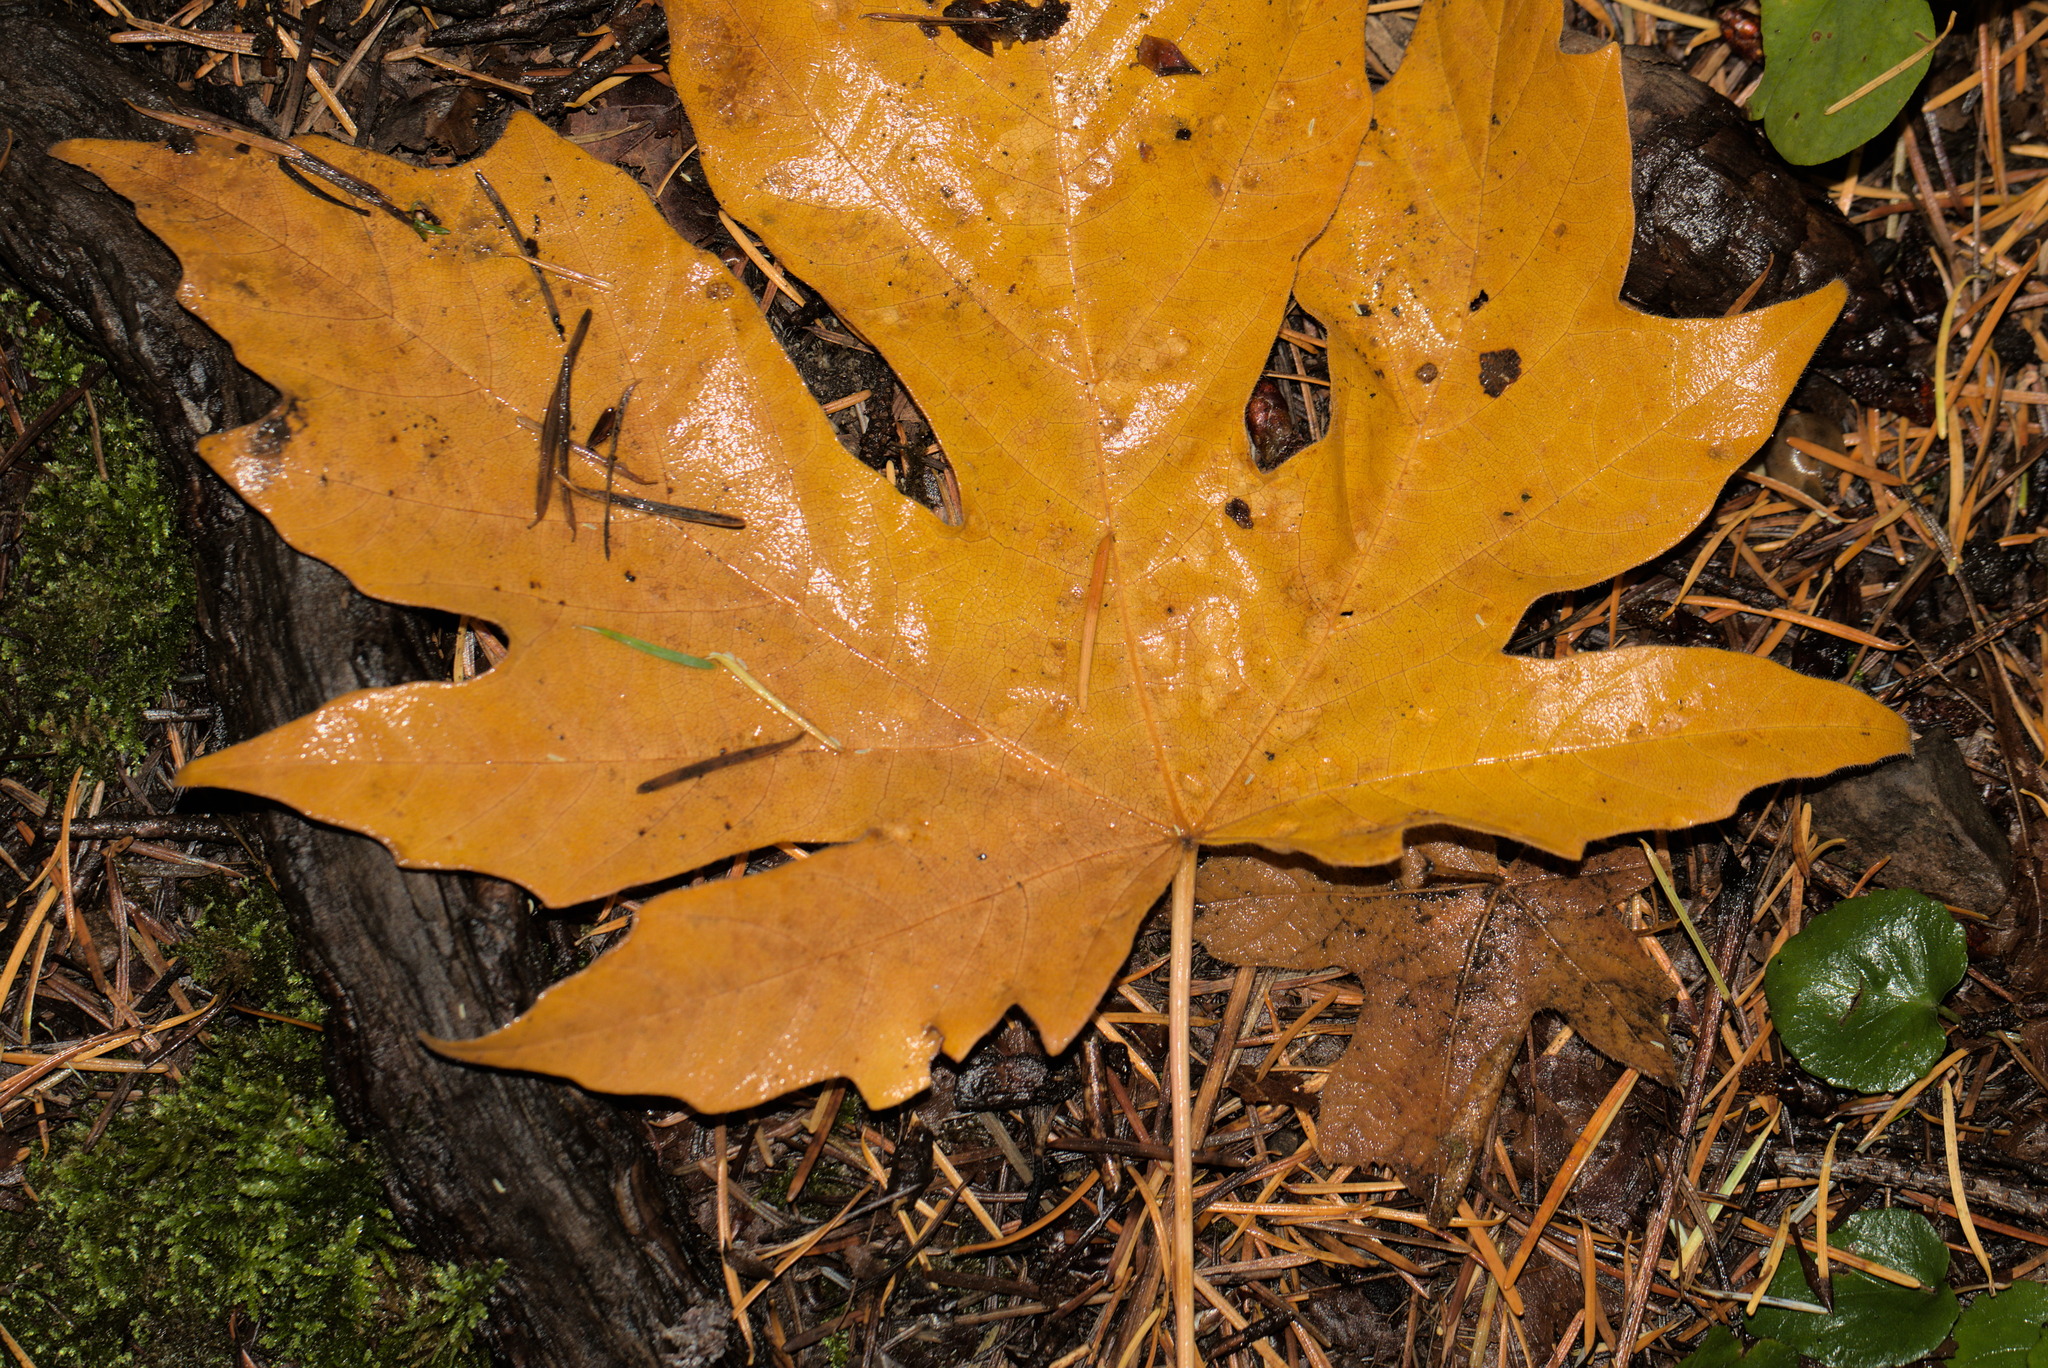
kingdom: Plantae
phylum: Tracheophyta
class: Magnoliopsida
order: Sapindales
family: Sapindaceae
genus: Acer
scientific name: Acer macrophyllum
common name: Oregon maple
